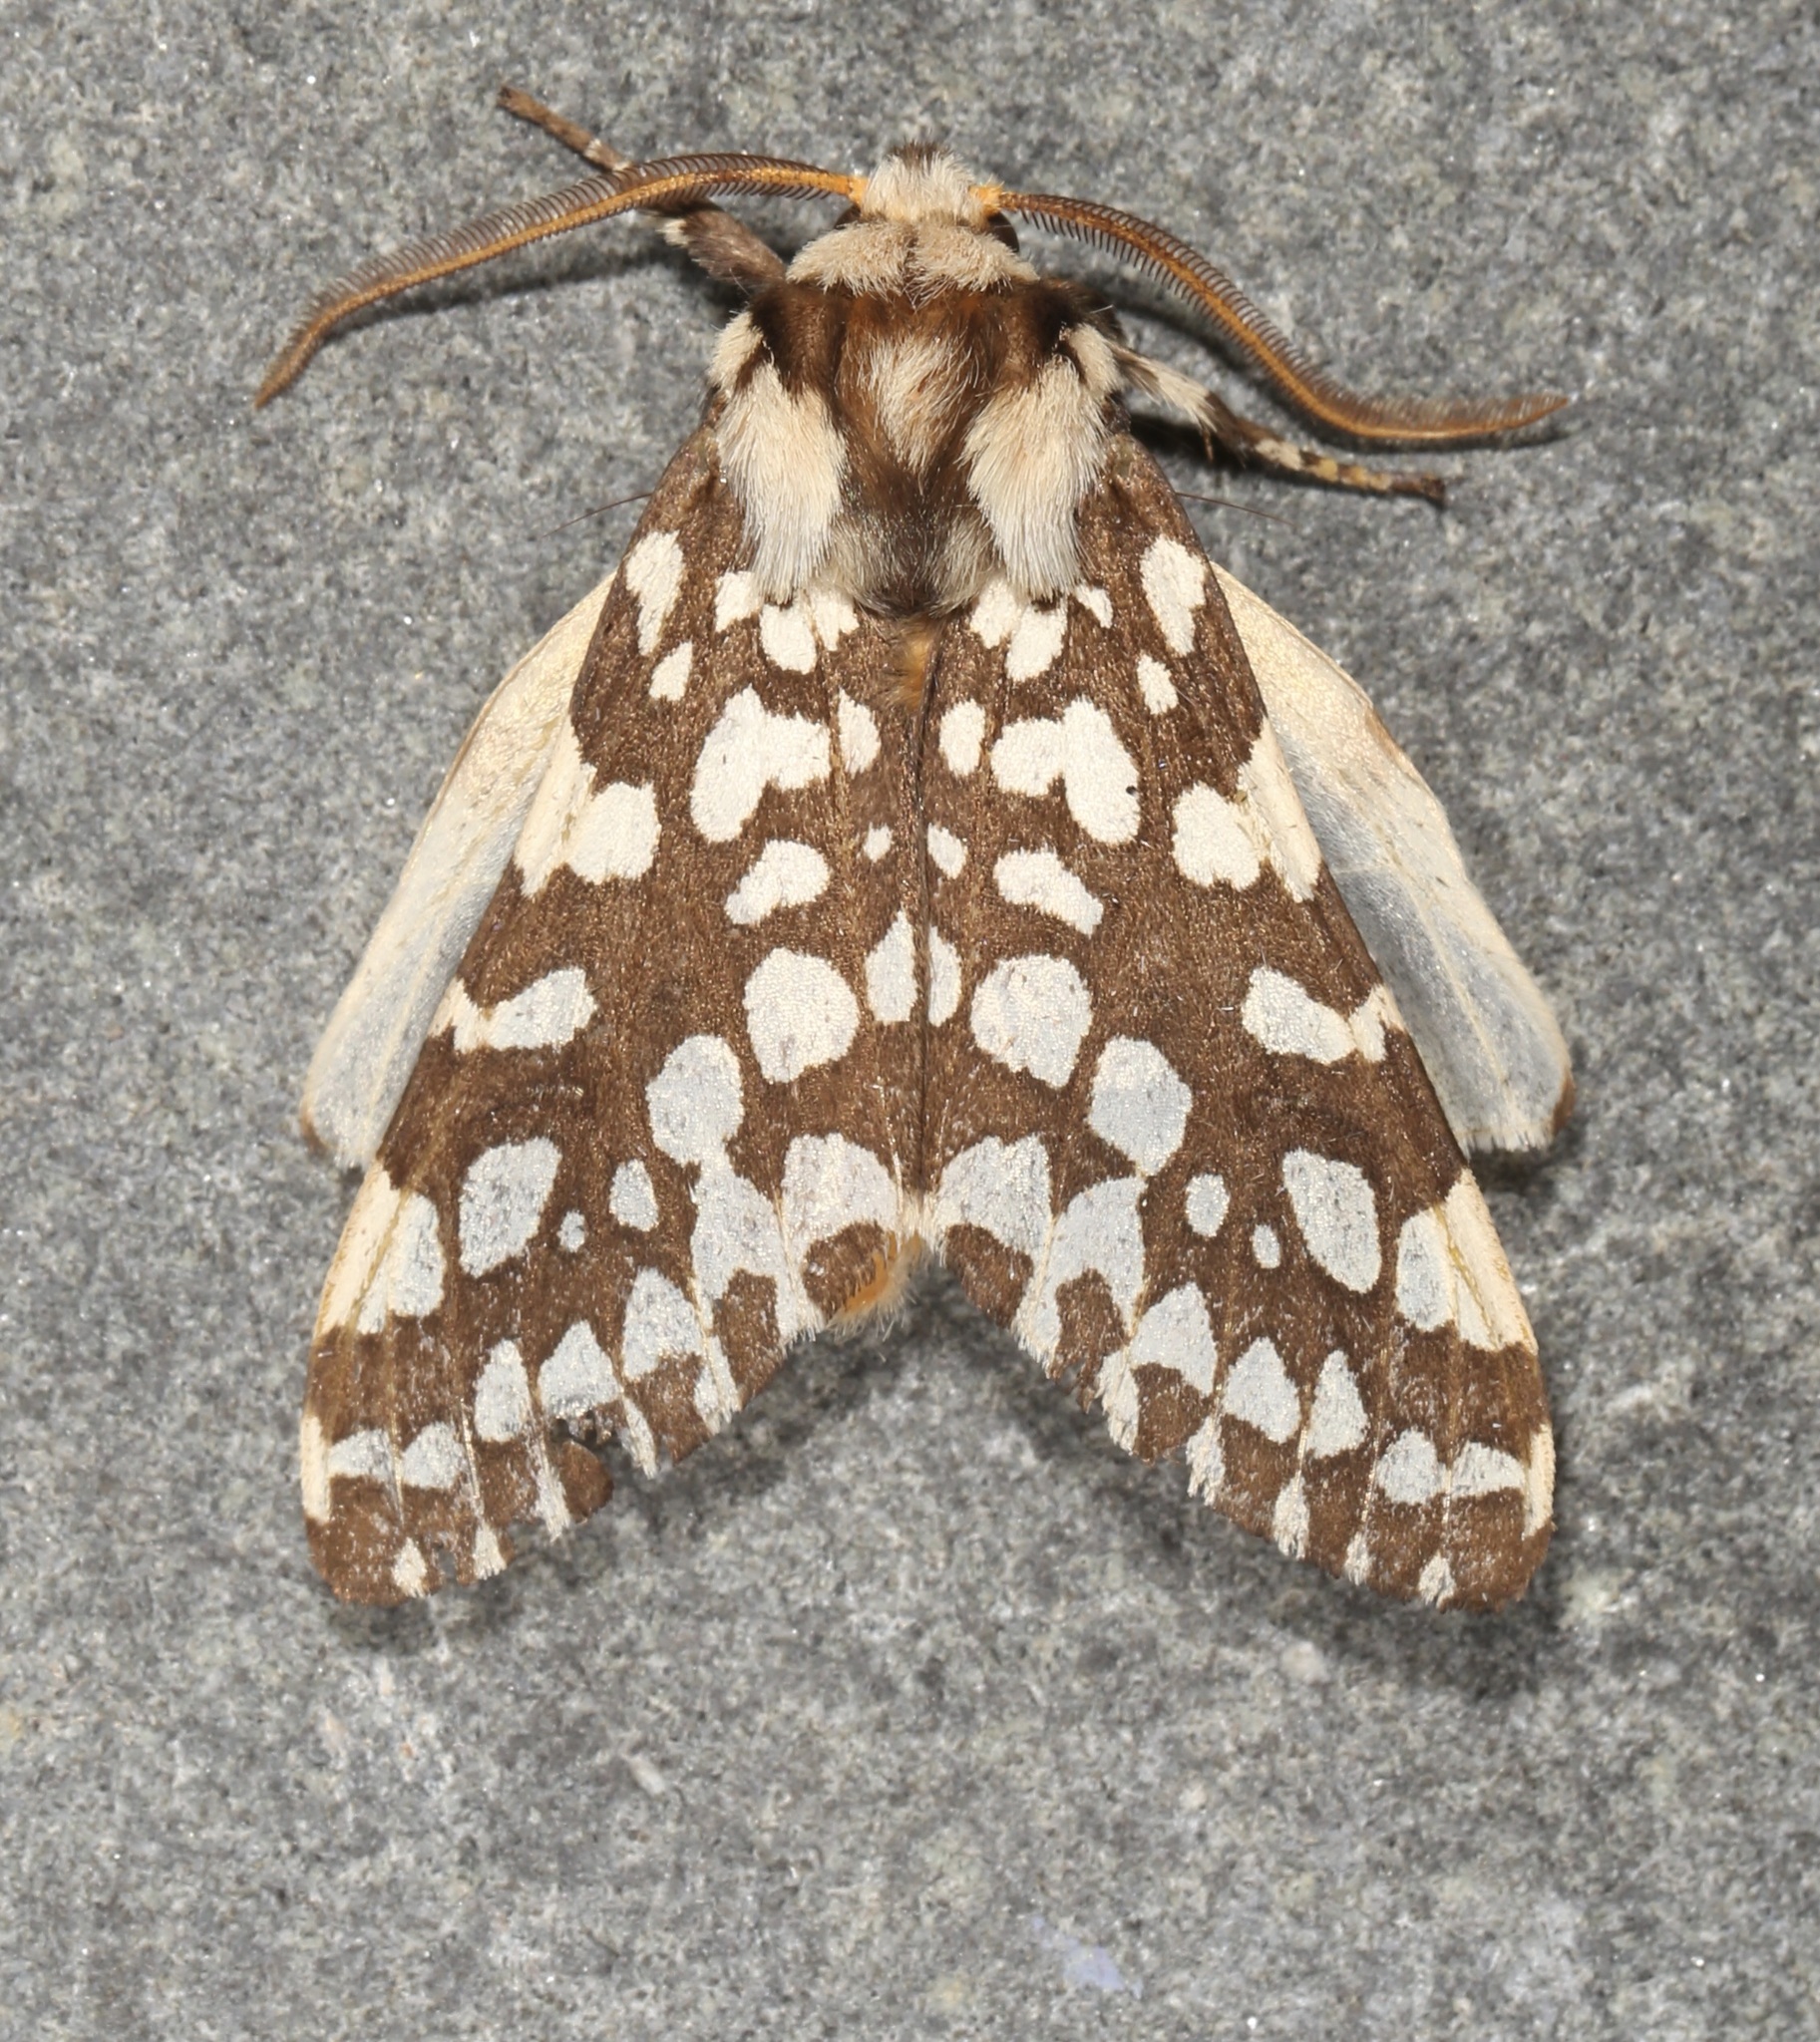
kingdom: Animalia
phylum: Arthropoda
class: Insecta
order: Lepidoptera
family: Erebidae
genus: Lophocampa
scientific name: Lophocampa ingens
